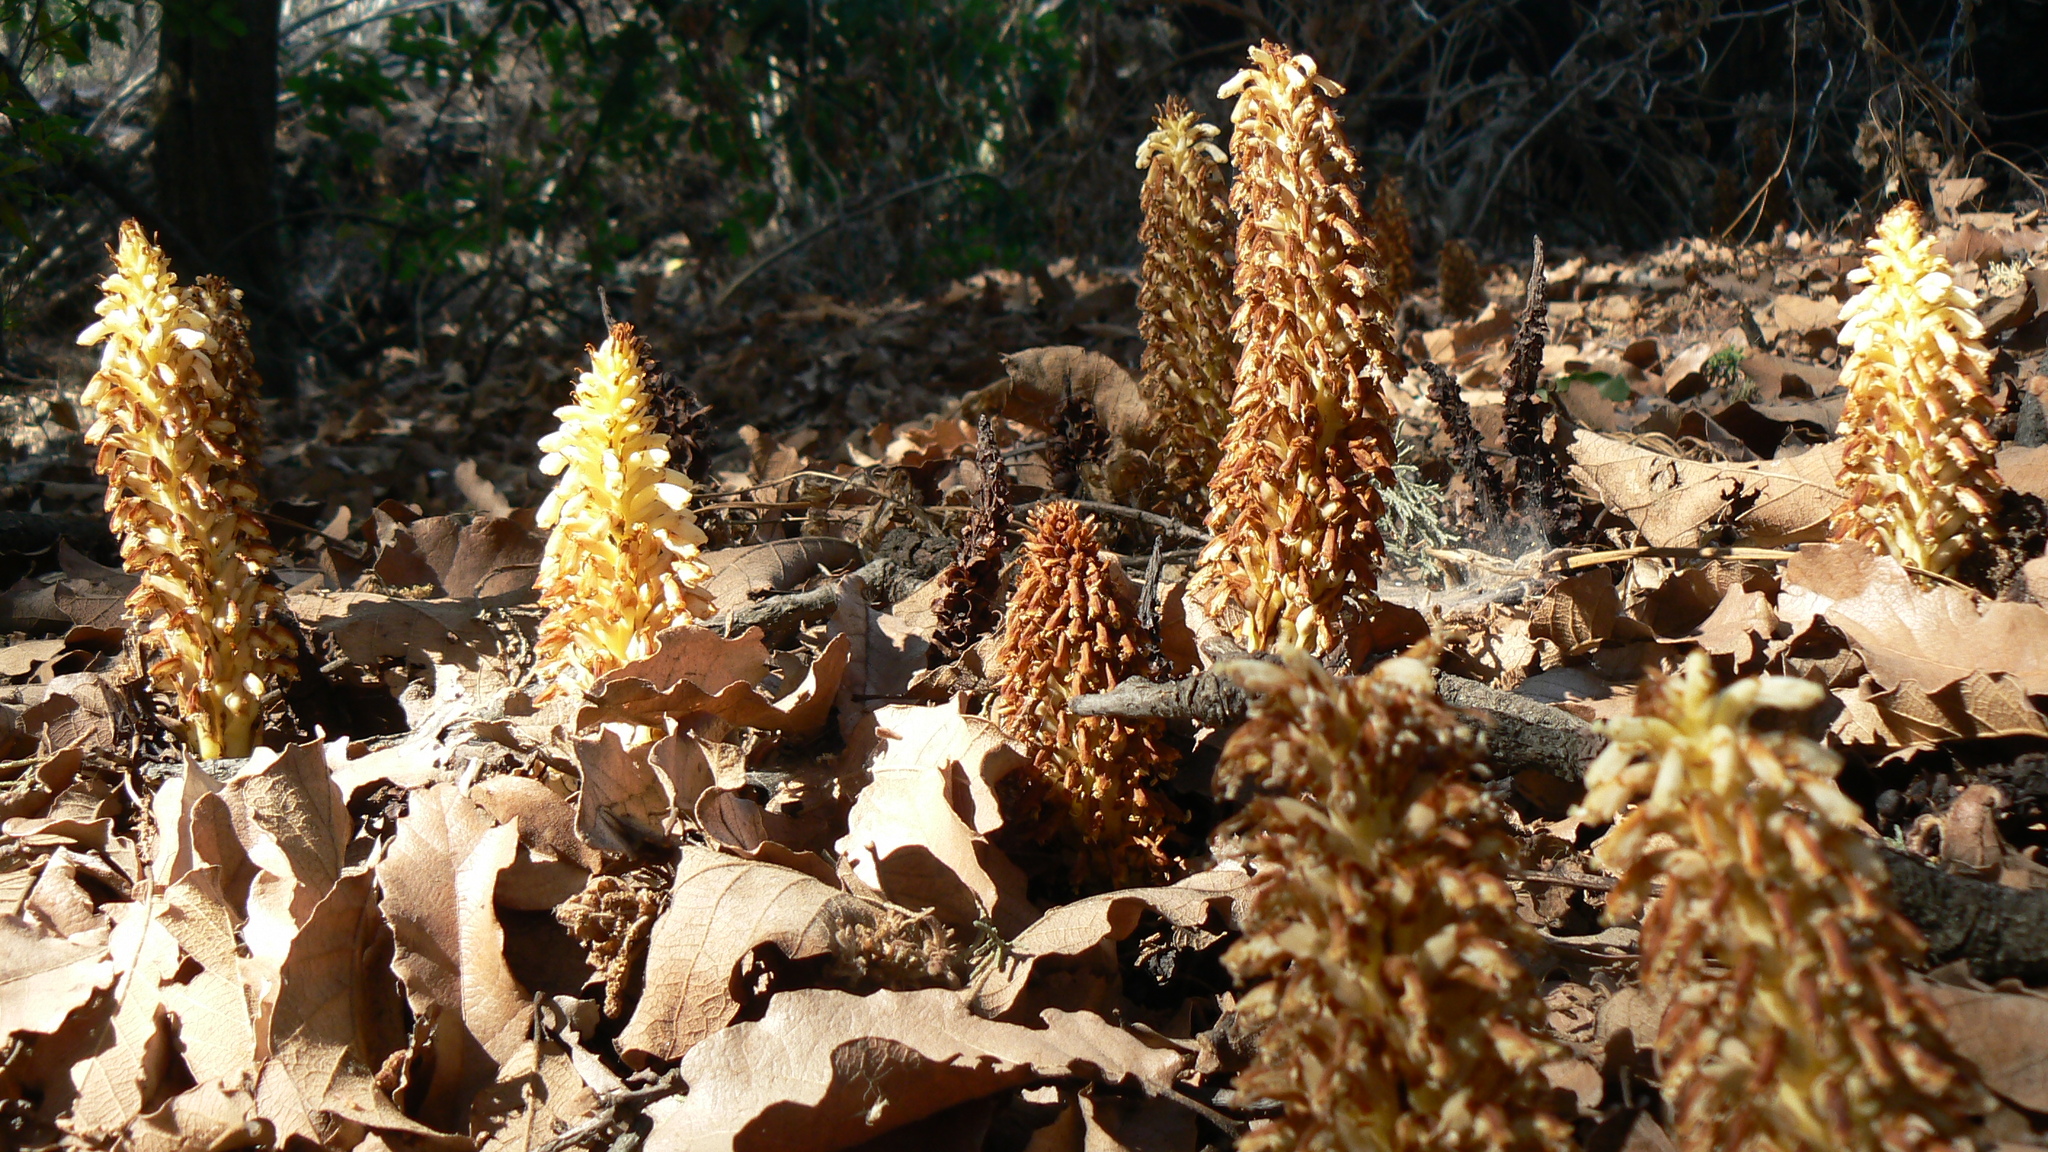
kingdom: Plantae
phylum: Tracheophyta
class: Magnoliopsida
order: Lamiales
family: Orobanchaceae
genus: Conopholis
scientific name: Conopholis alpina
